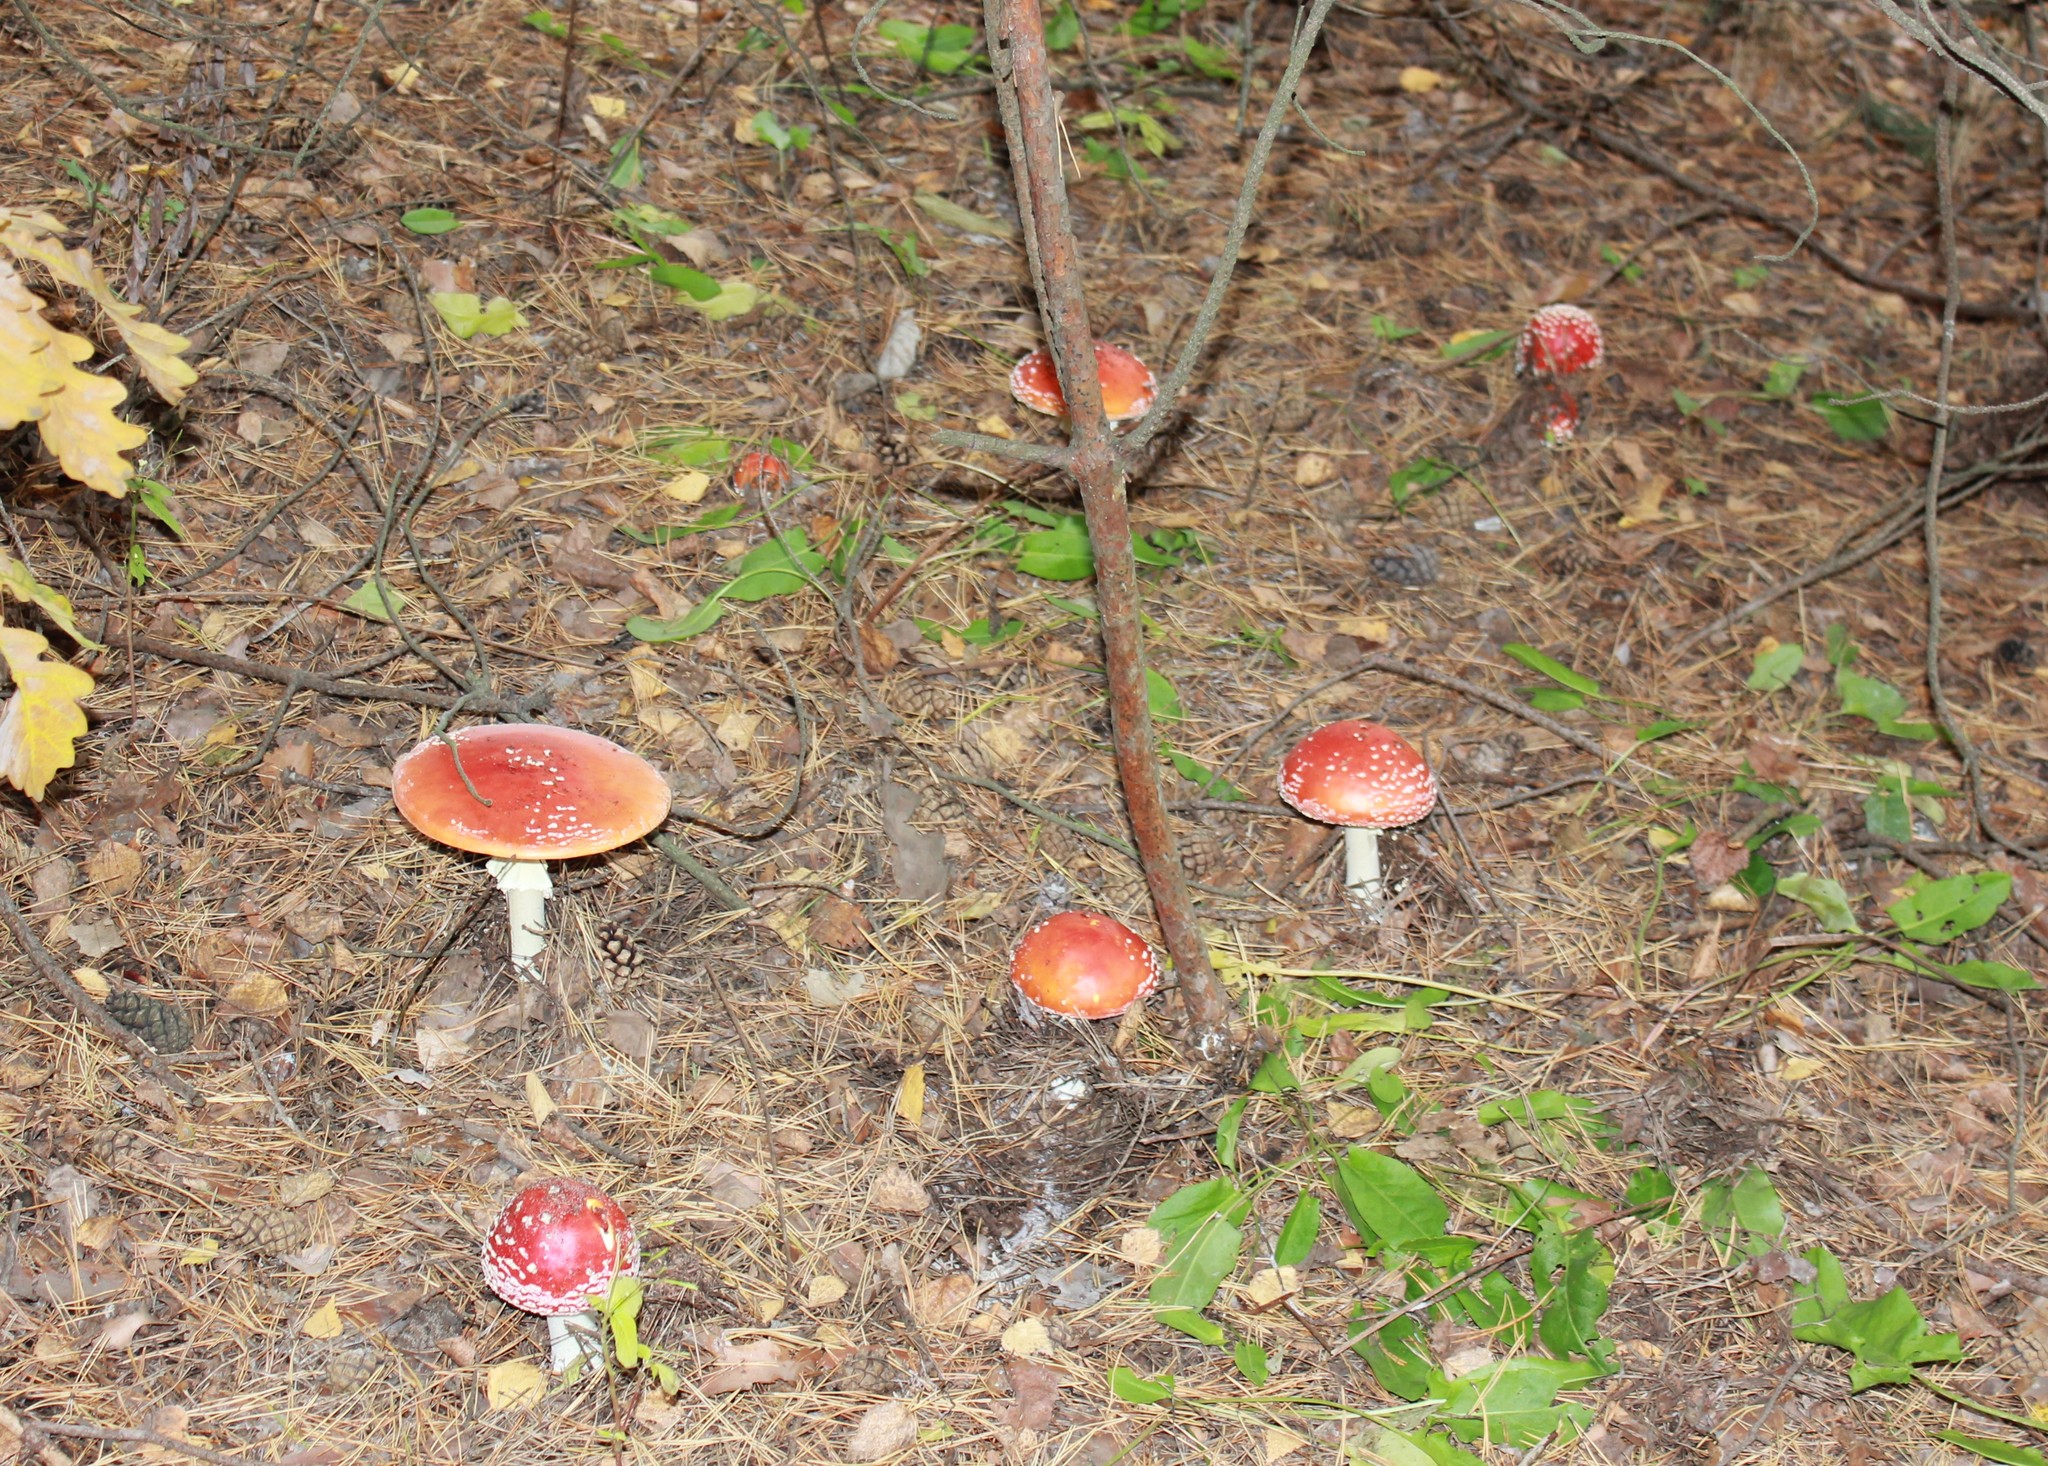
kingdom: Fungi
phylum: Basidiomycota
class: Agaricomycetes
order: Agaricales
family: Amanitaceae
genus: Amanita
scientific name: Amanita muscaria
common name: Fly agaric
